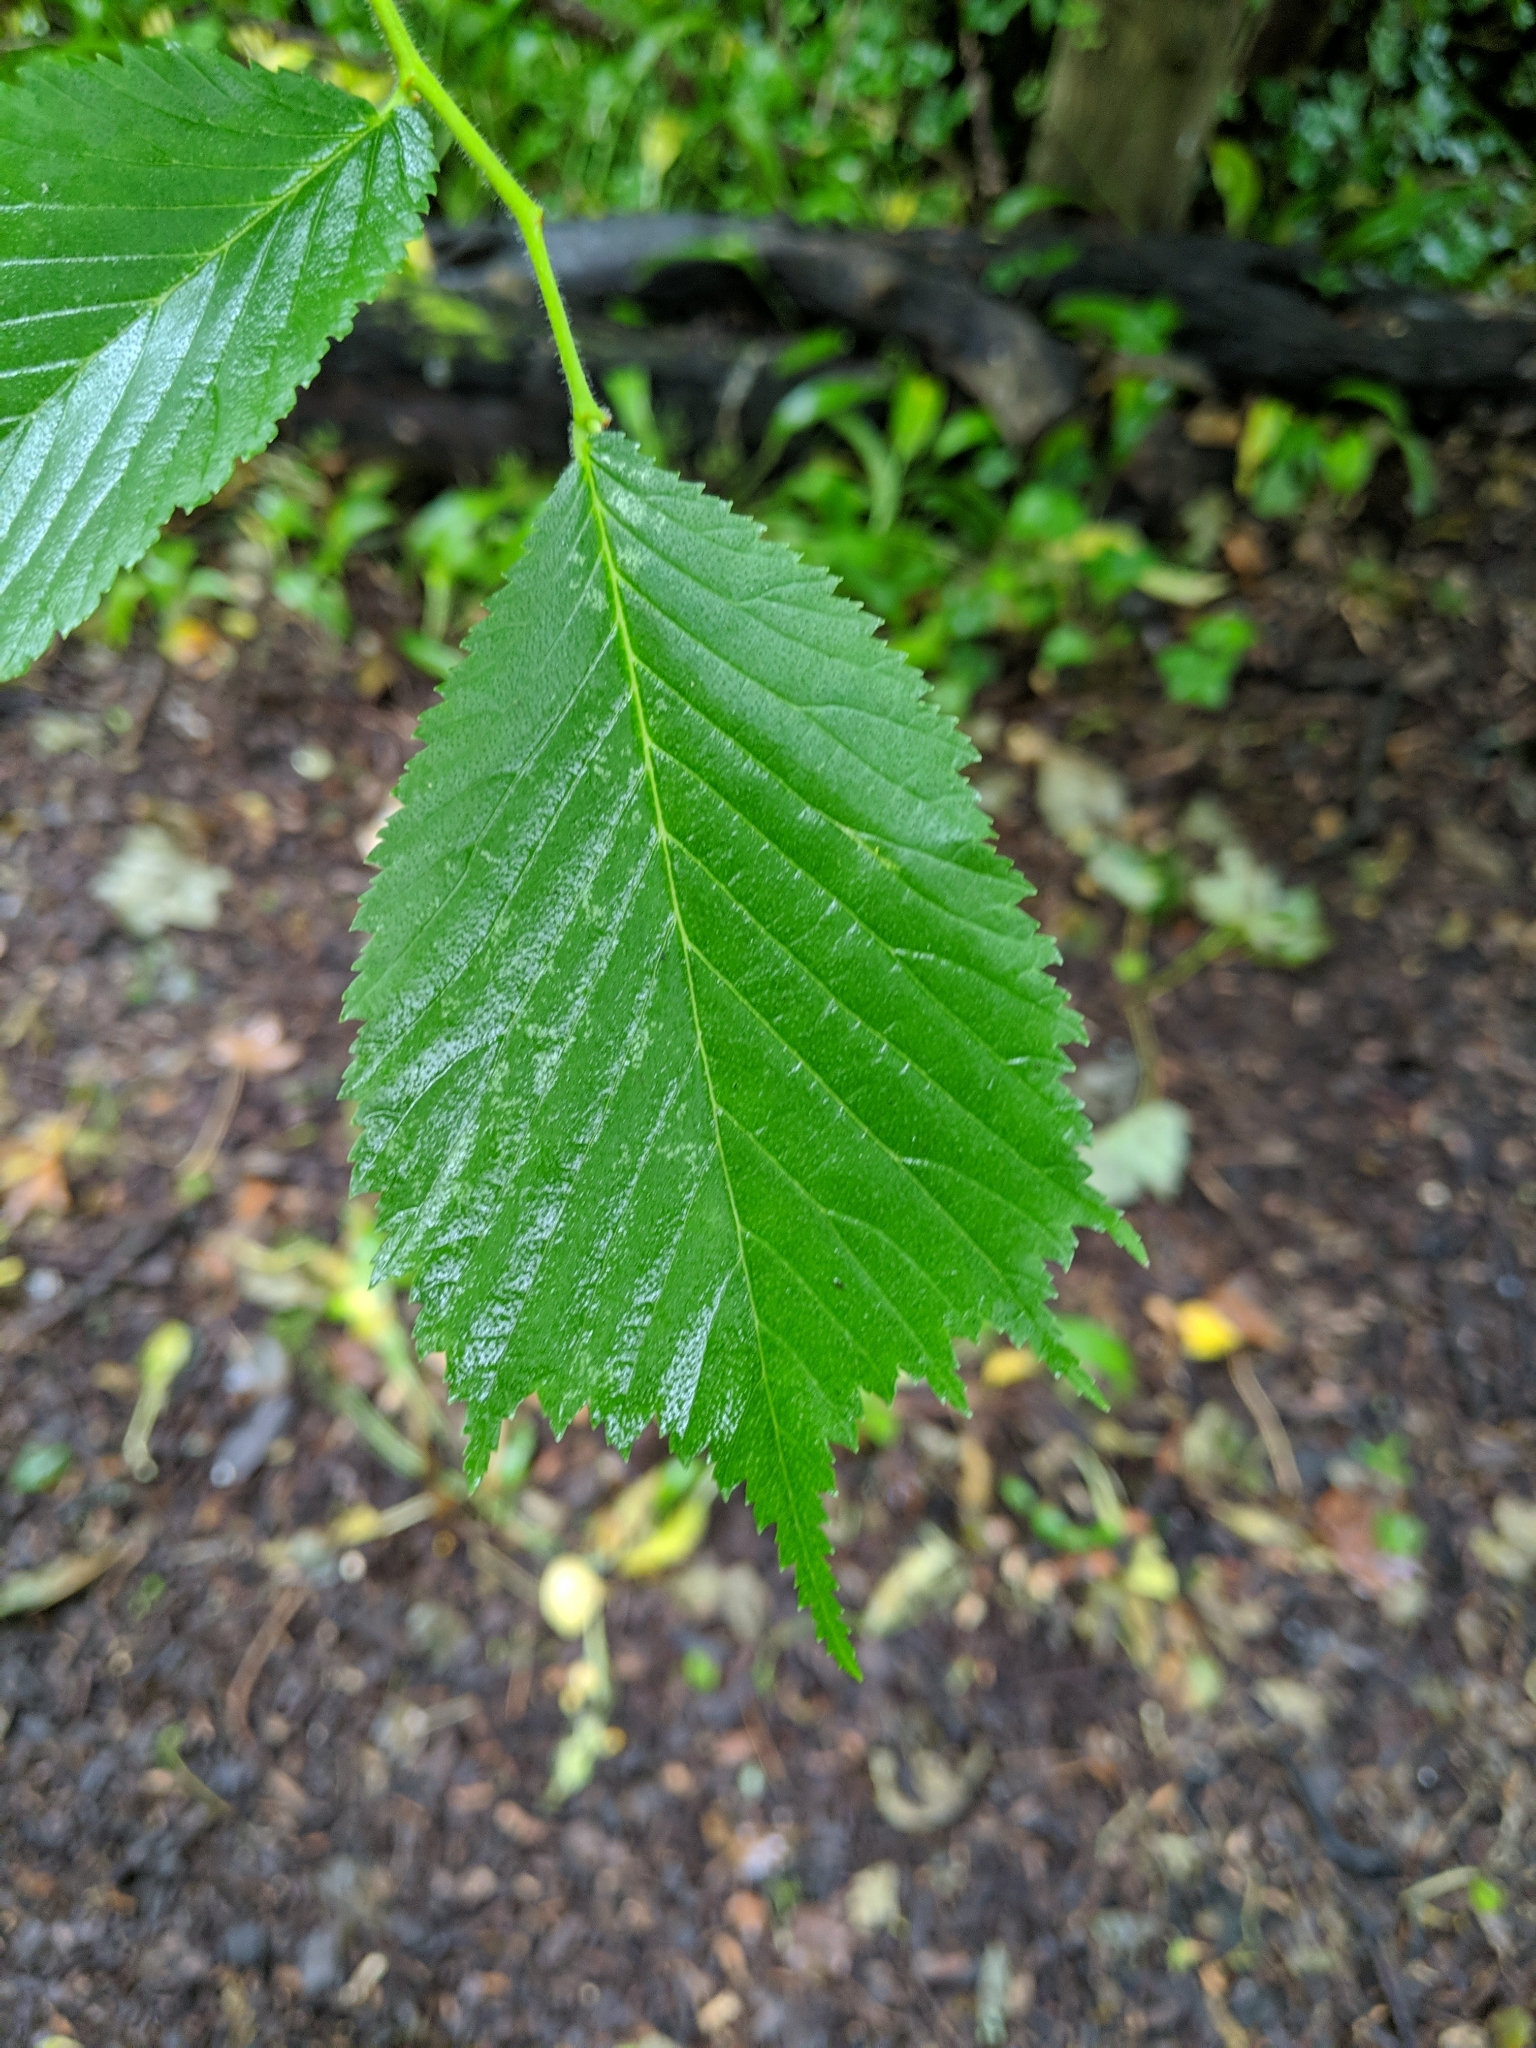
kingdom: Plantae
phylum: Tracheophyta
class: Magnoliopsida
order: Rosales
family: Ulmaceae
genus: Ulmus
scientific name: Ulmus glabra
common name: Wych elm
